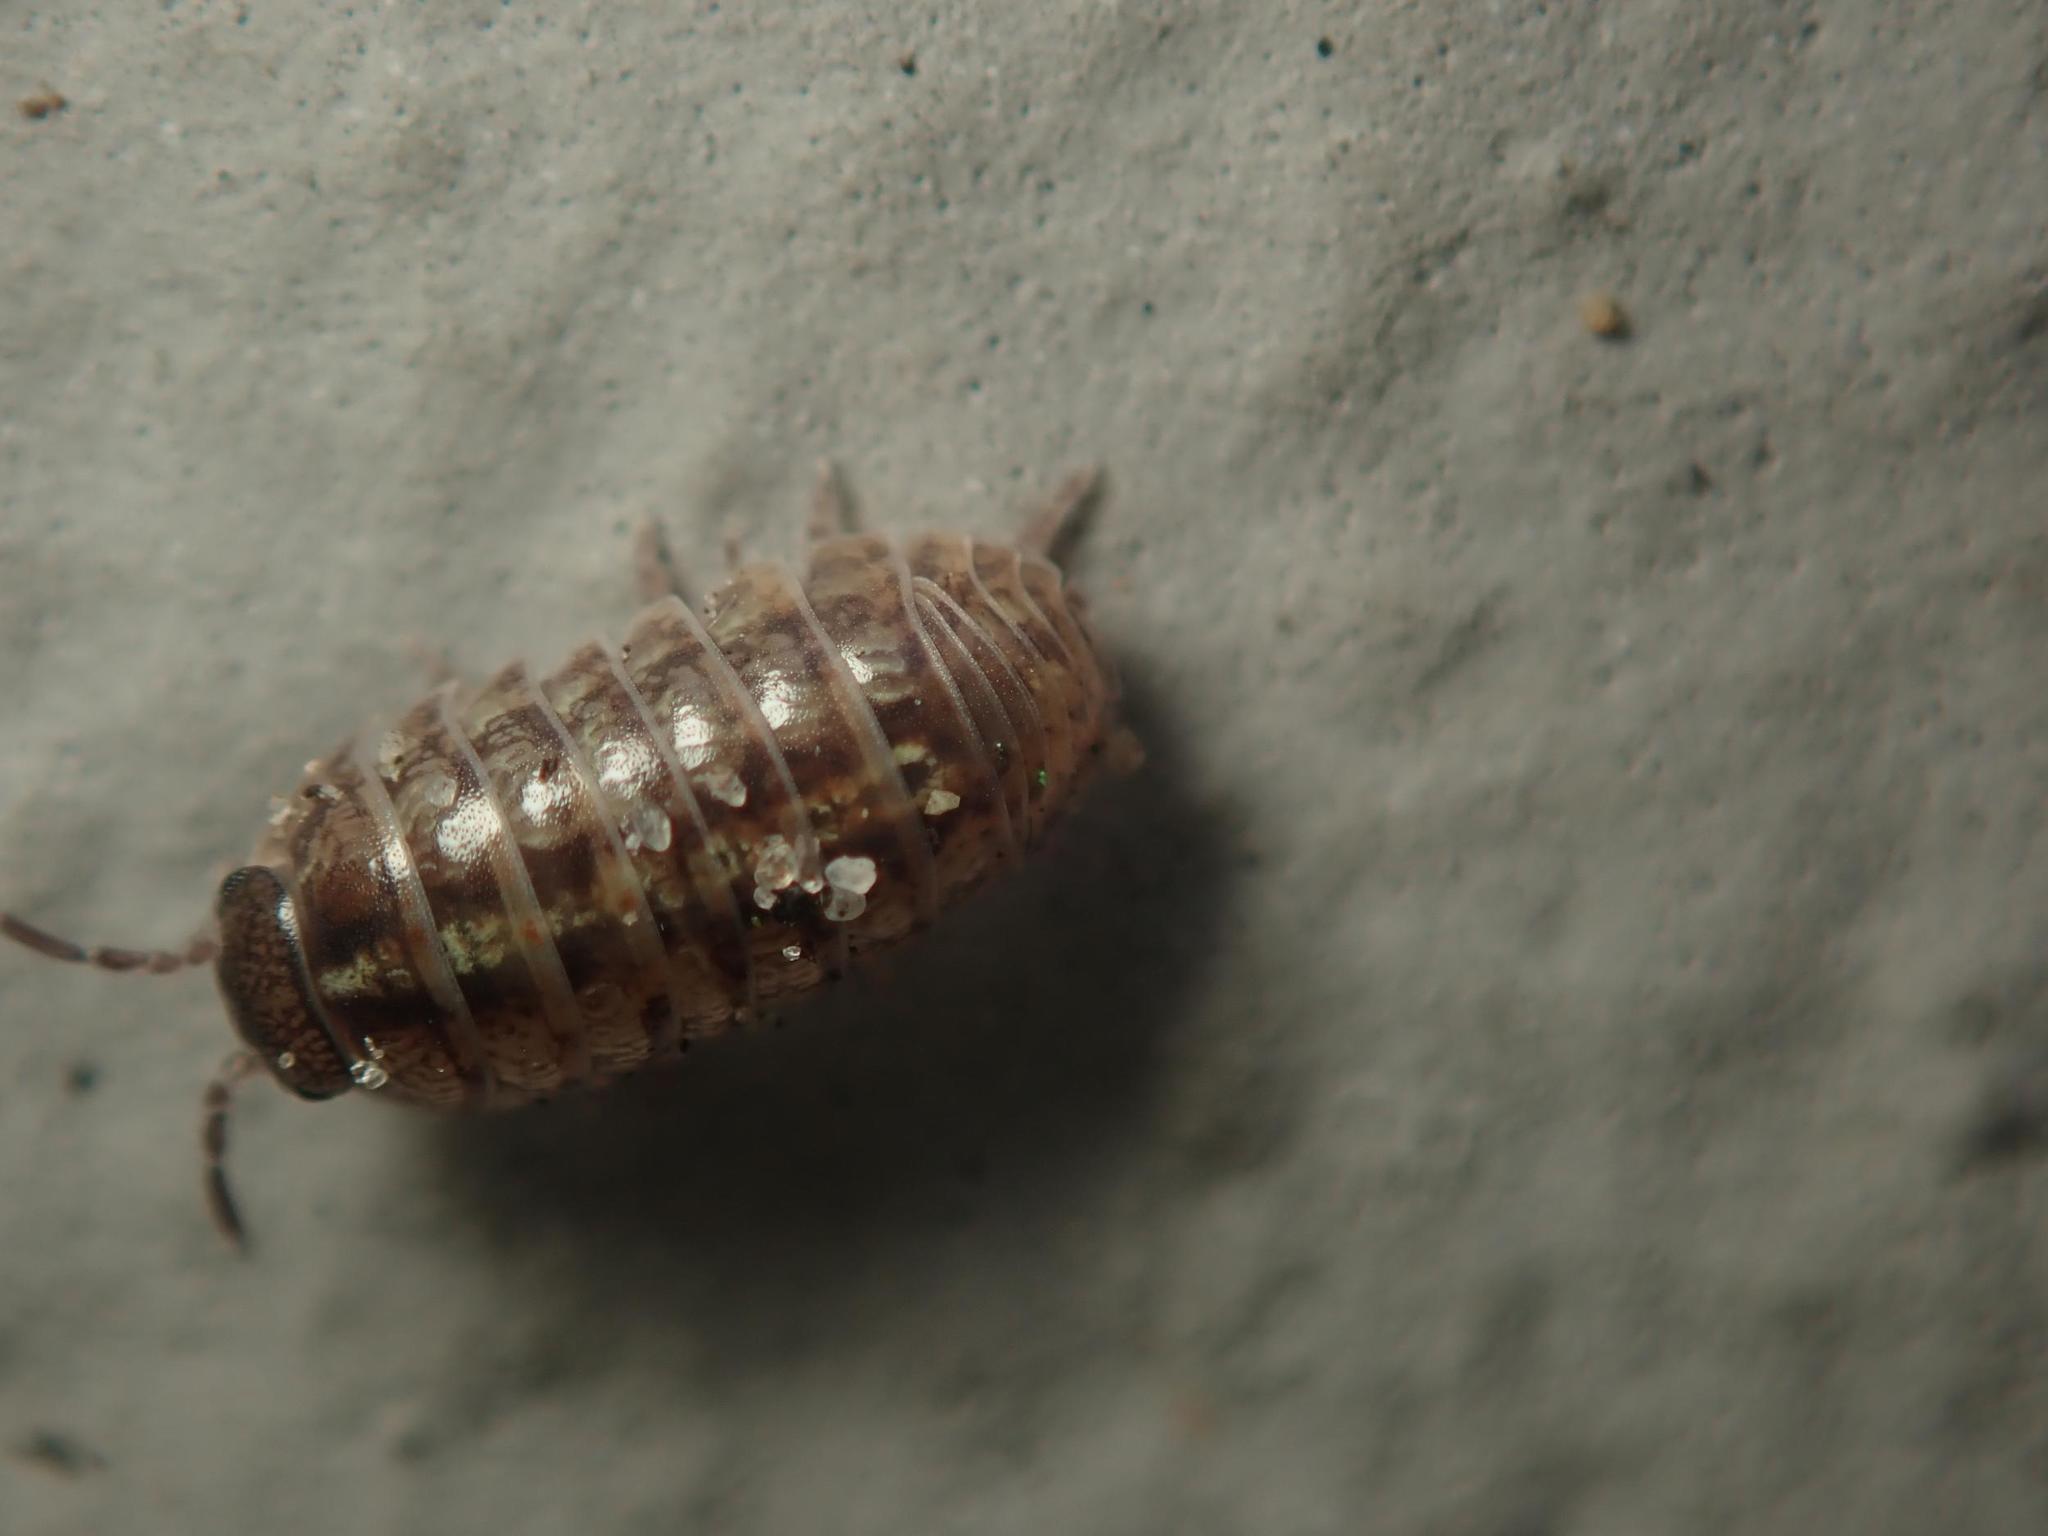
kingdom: Animalia
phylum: Arthropoda
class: Malacostraca
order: Isopoda
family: Armadillidiidae
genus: Armadillidium
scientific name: Armadillidium vulgare
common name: Common pill woodlouse
